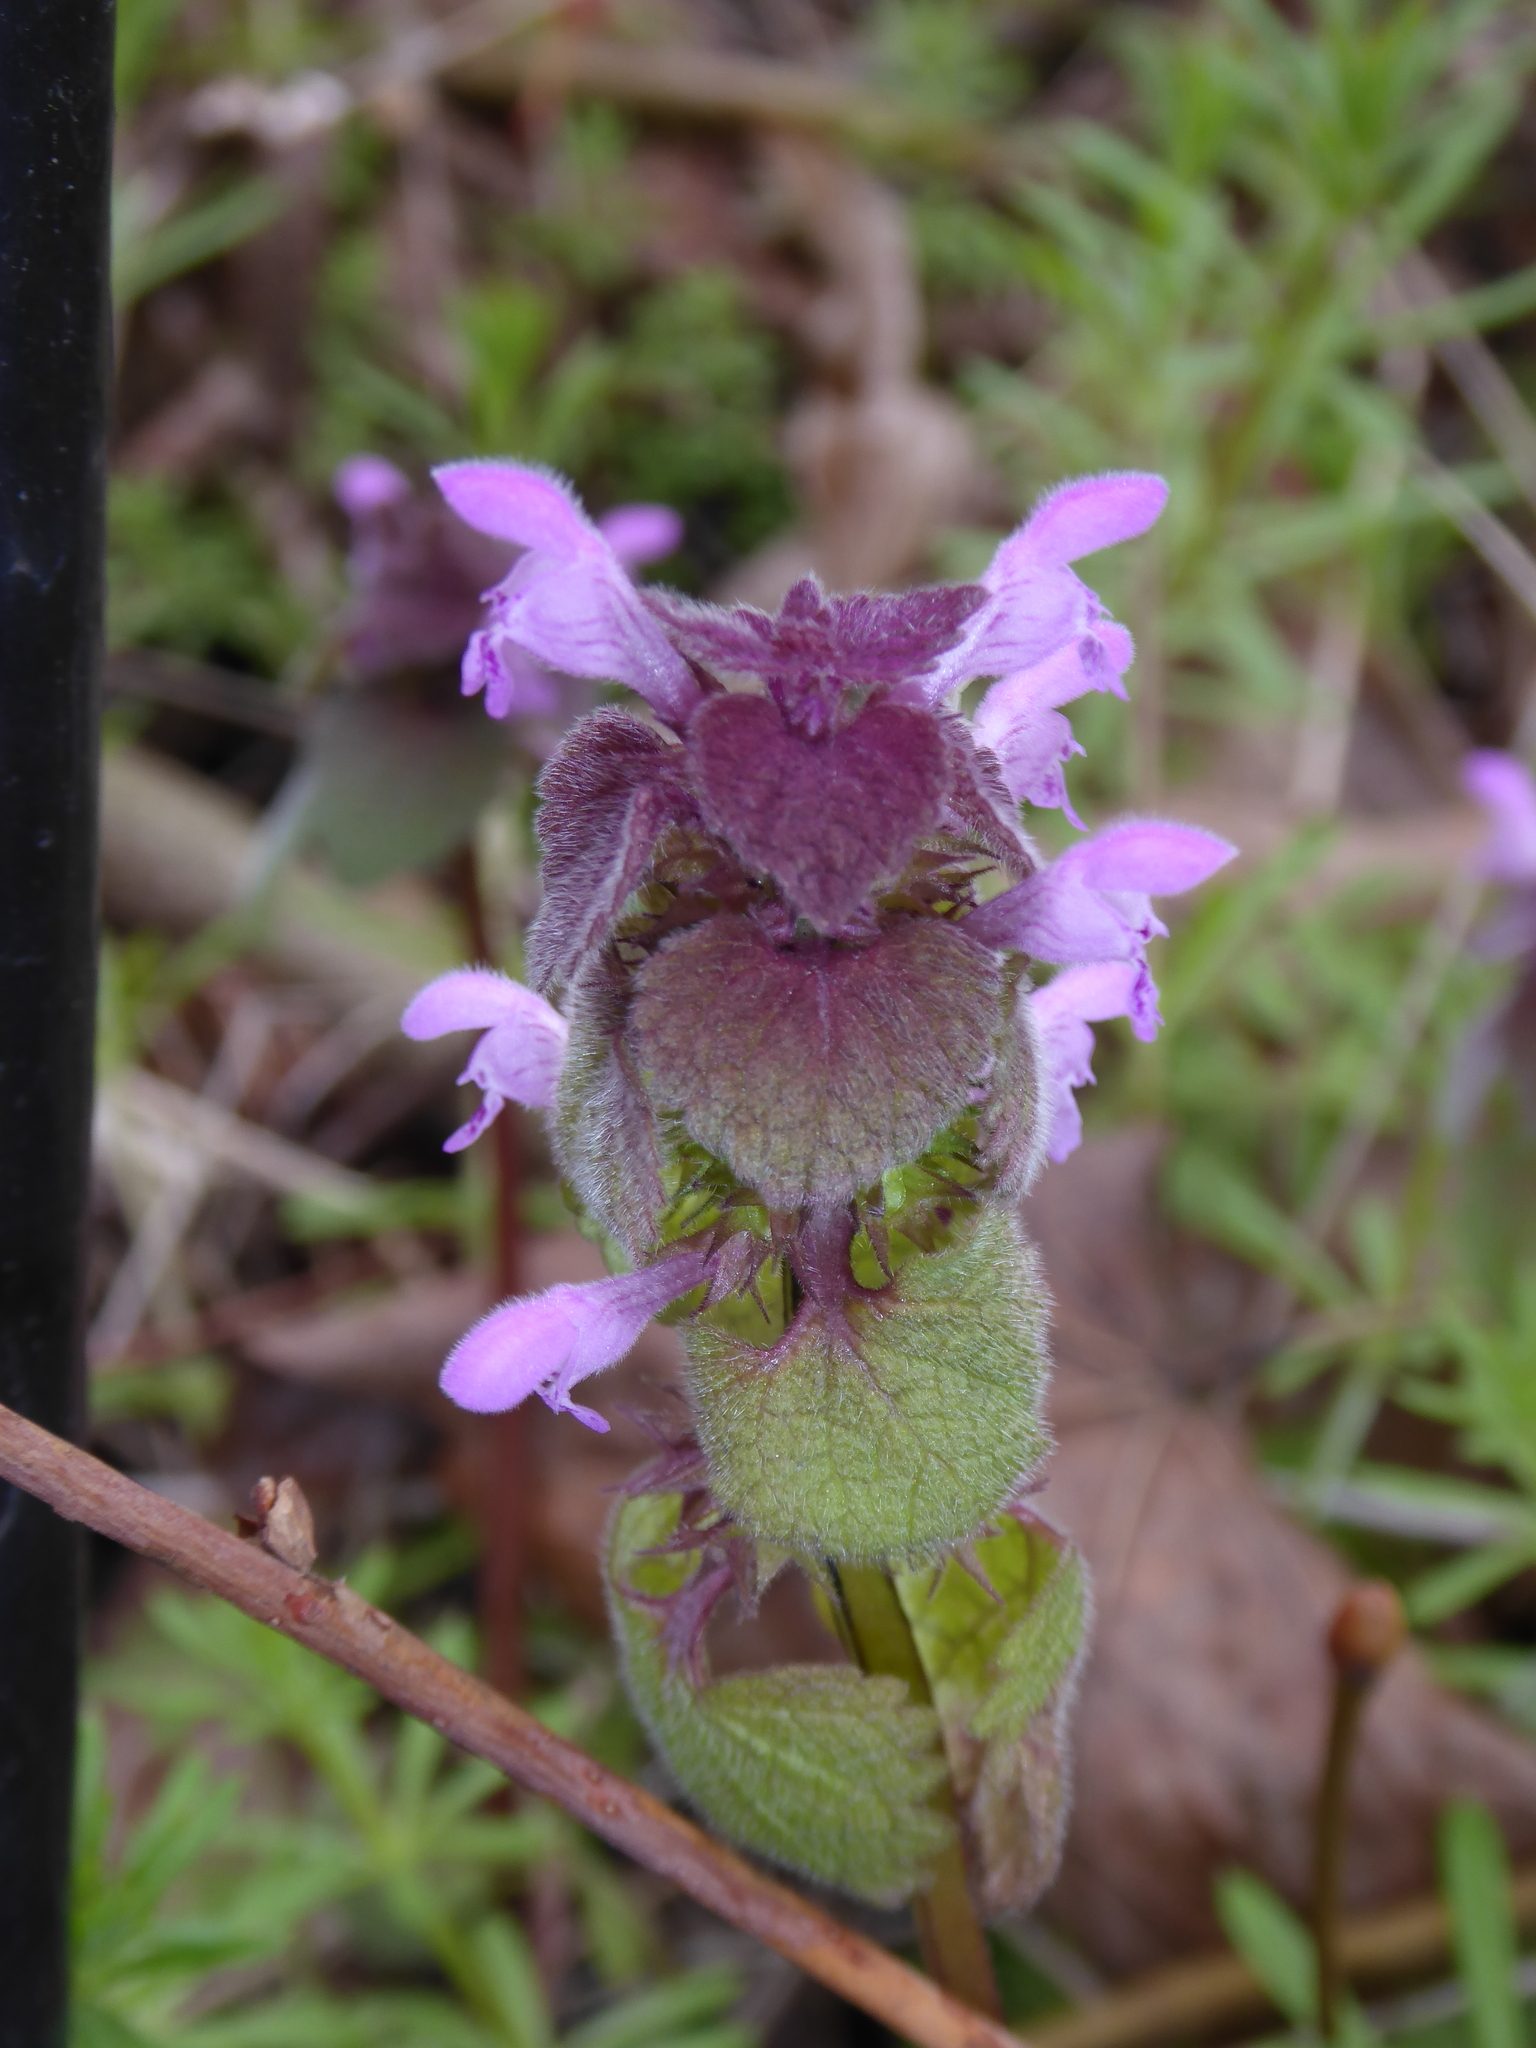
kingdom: Plantae
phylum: Tracheophyta
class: Magnoliopsida
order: Lamiales
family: Lamiaceae
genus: Lamium
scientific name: Lamium purpureum
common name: Red dead-nettle
